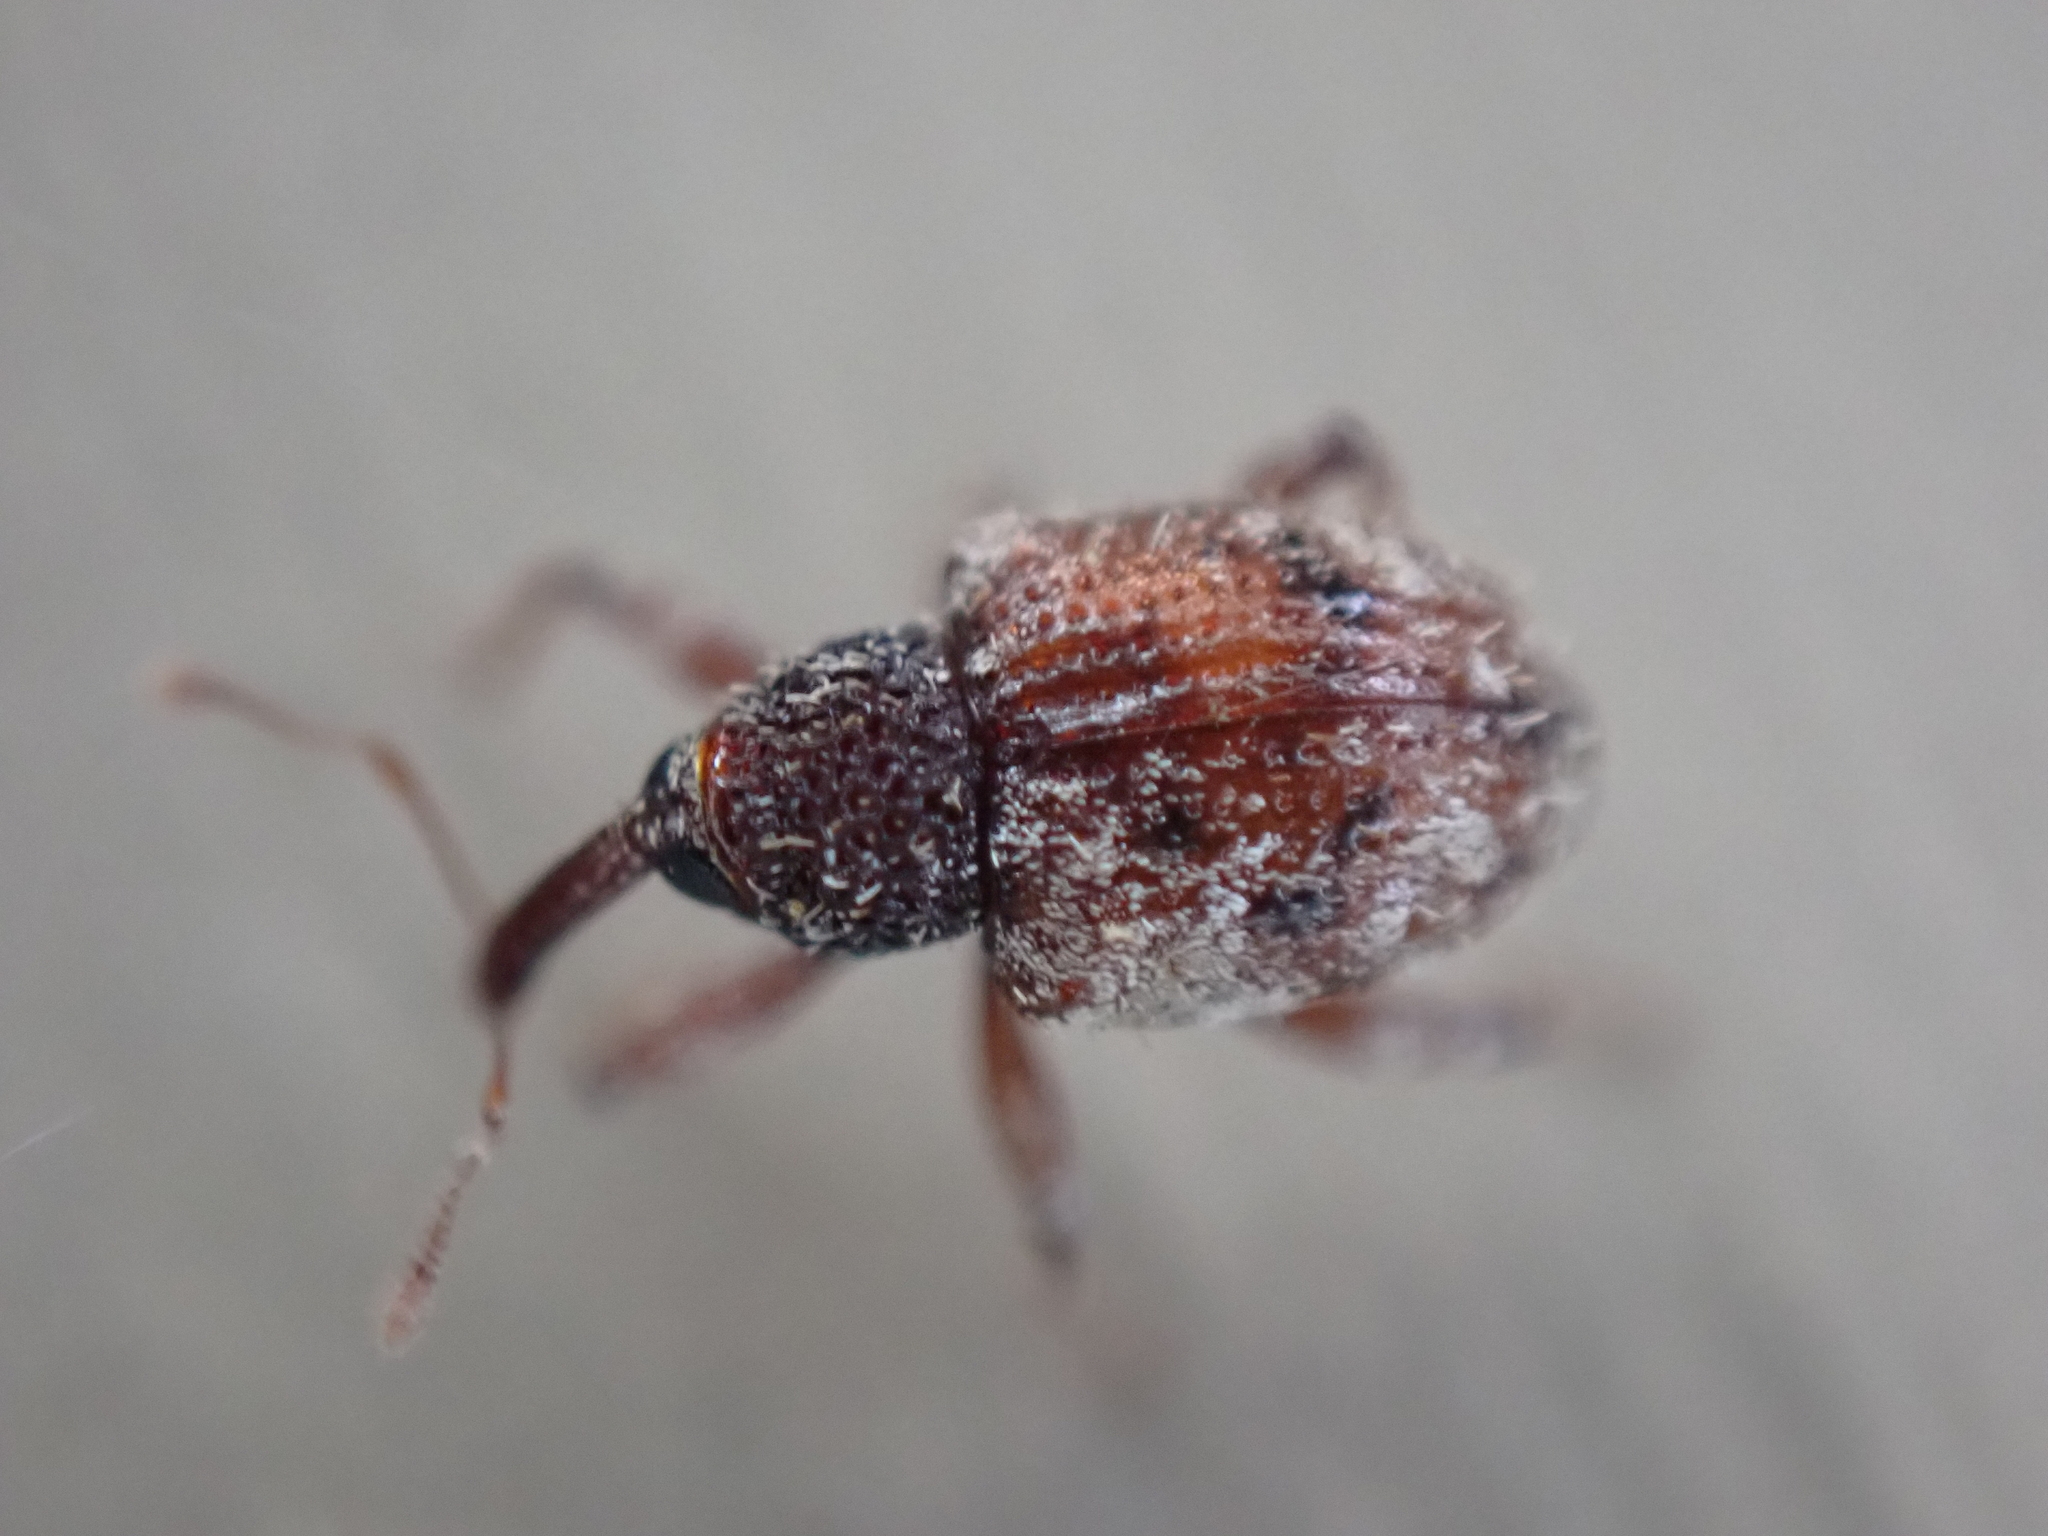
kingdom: Animalia
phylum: Arthropoda
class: Insecta
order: Coleoptera
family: Curculionidae
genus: Conotrachelus
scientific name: Conotrachelus erinaceus
